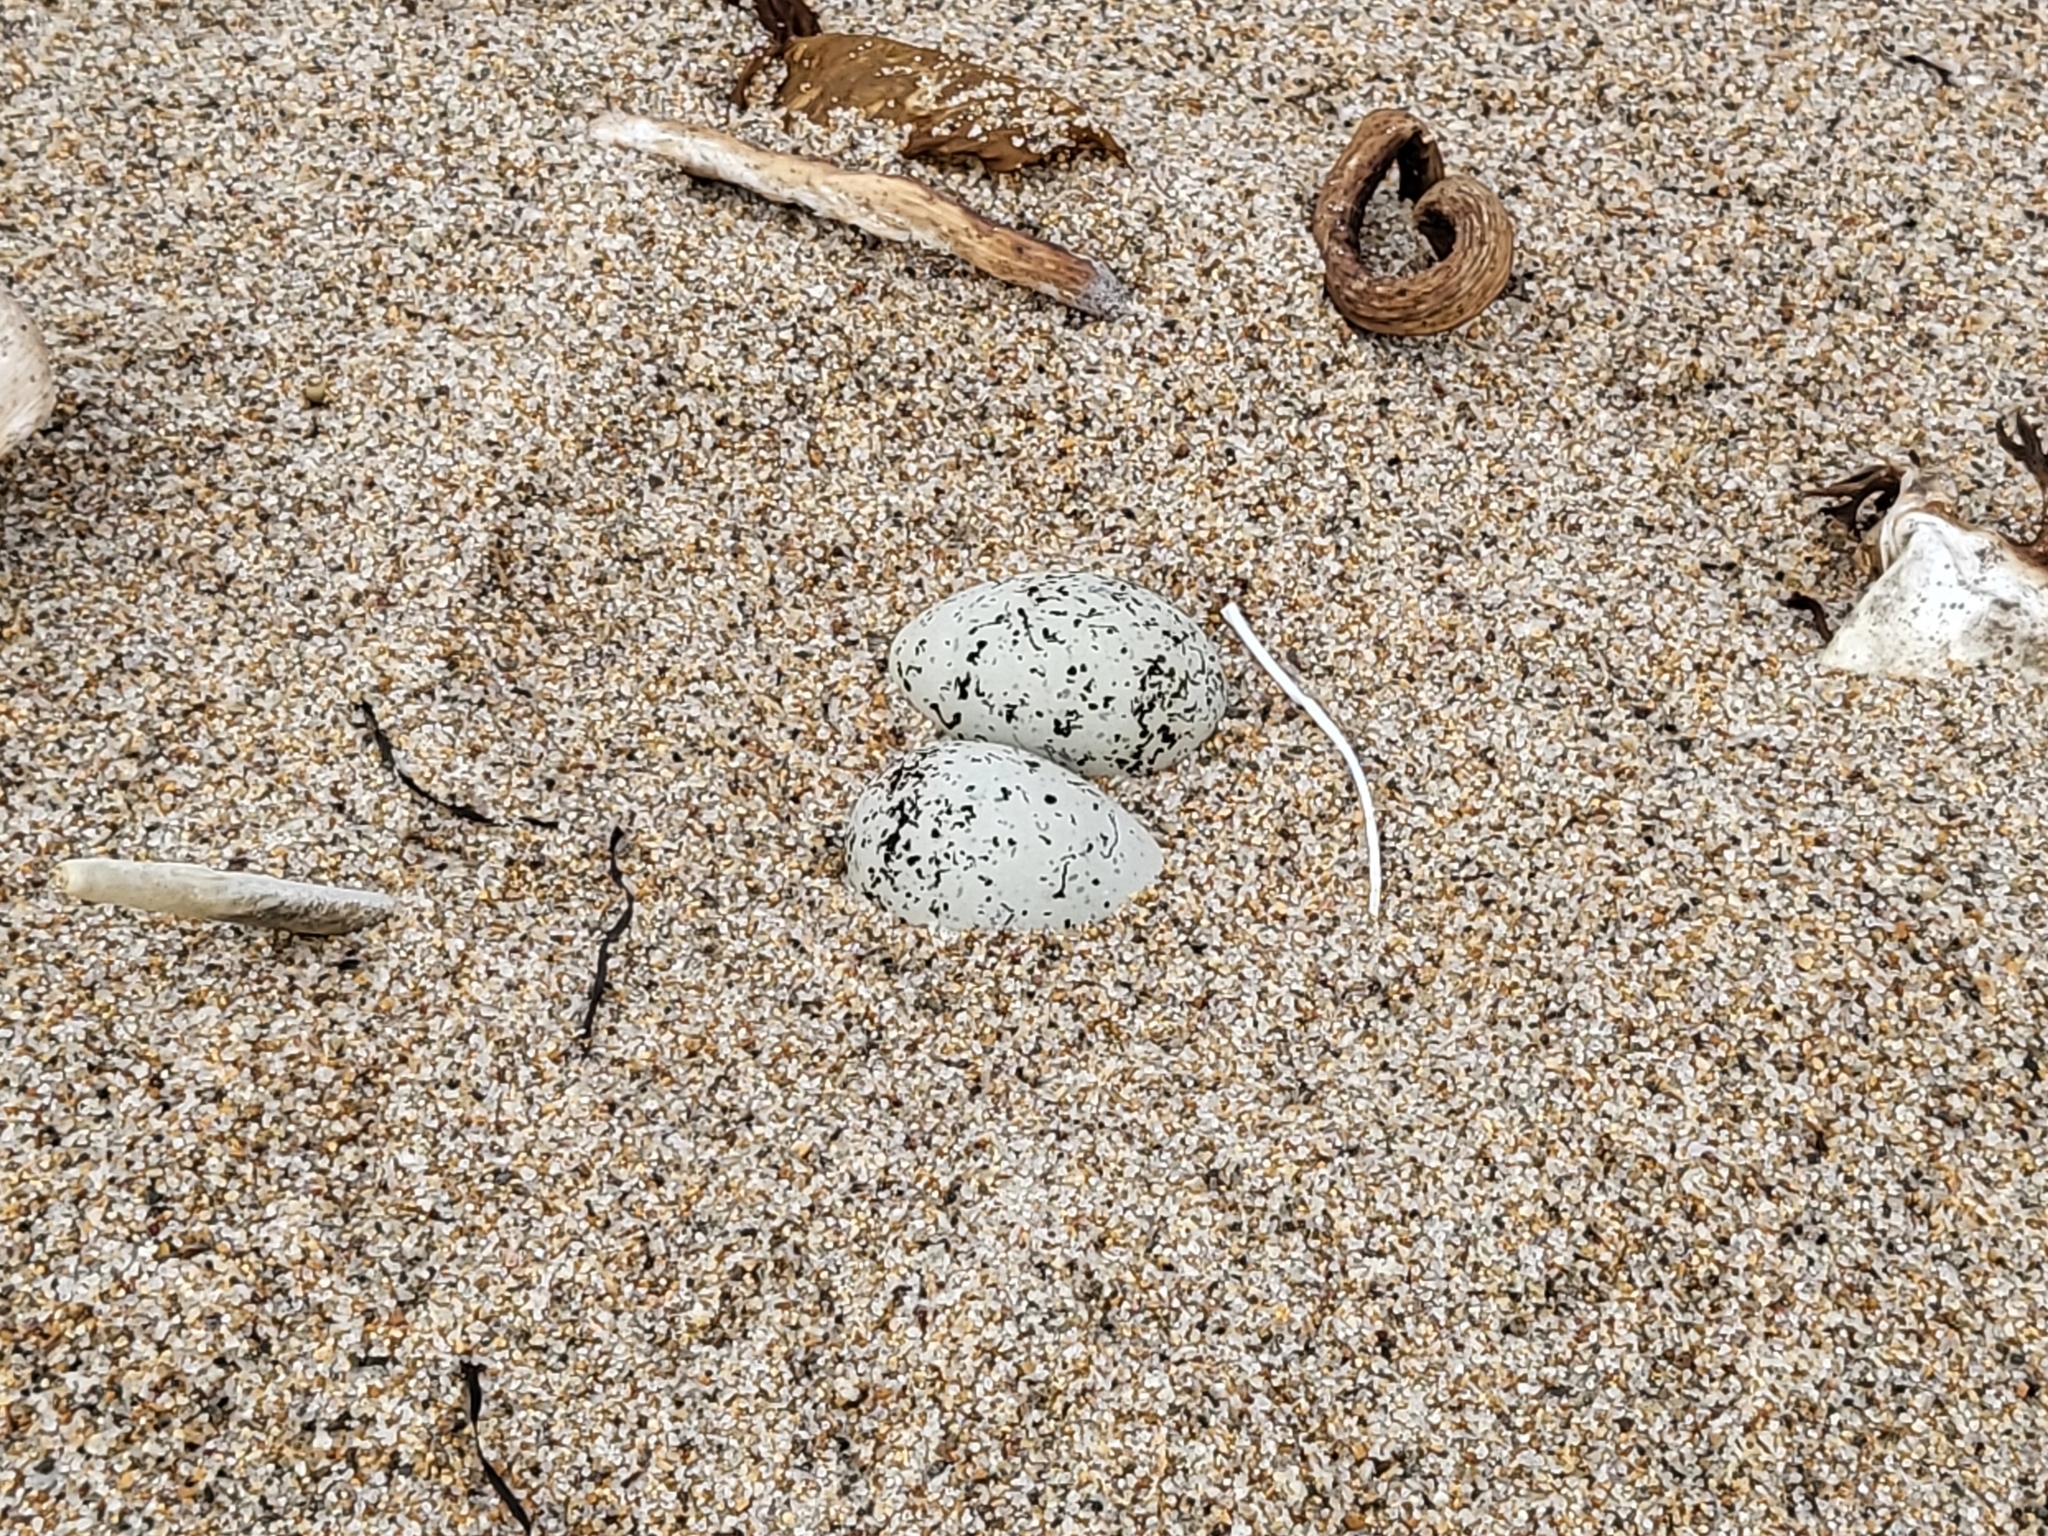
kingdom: Animalia
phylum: Chordata
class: Aves
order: Charadriiformes
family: Charadriidae
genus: Anarhynchus
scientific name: Anarhynchus
